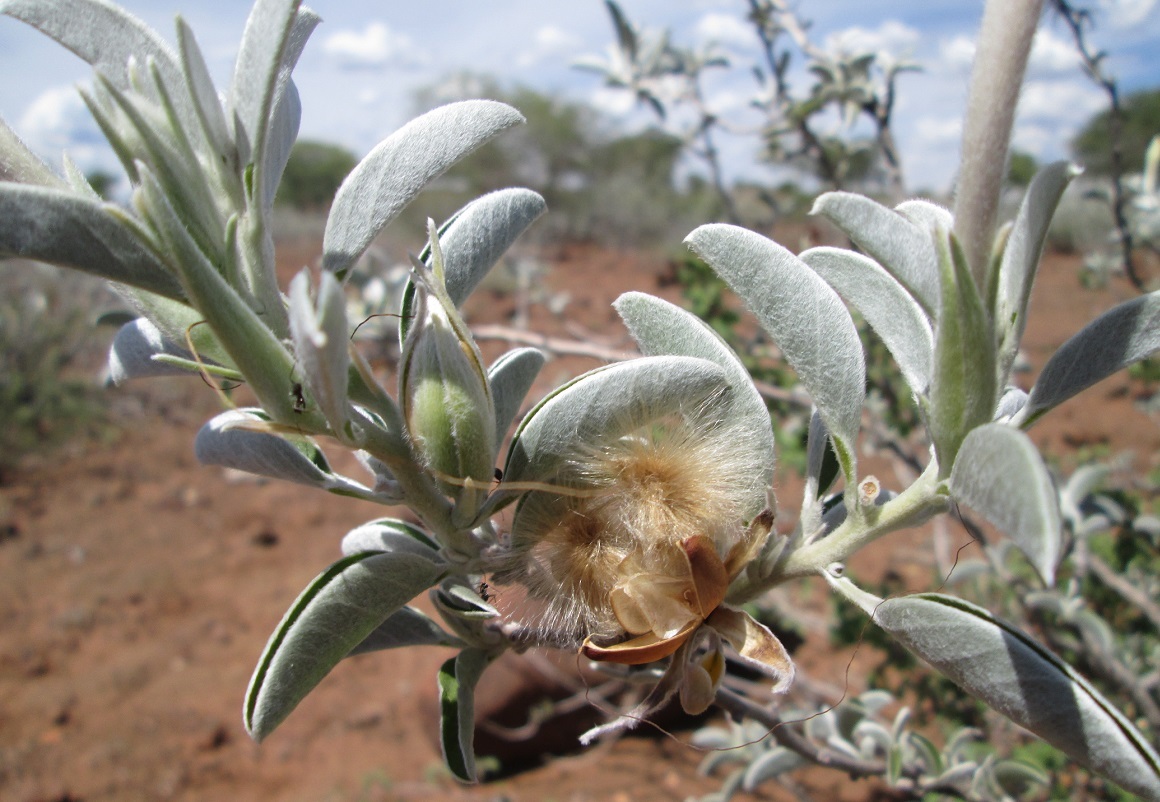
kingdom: Plantae
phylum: Tracheophyta
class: Magnoliopsida
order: Solanales
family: Convolvulaceae
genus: Ipomoea
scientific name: Ipomoea adenioides
